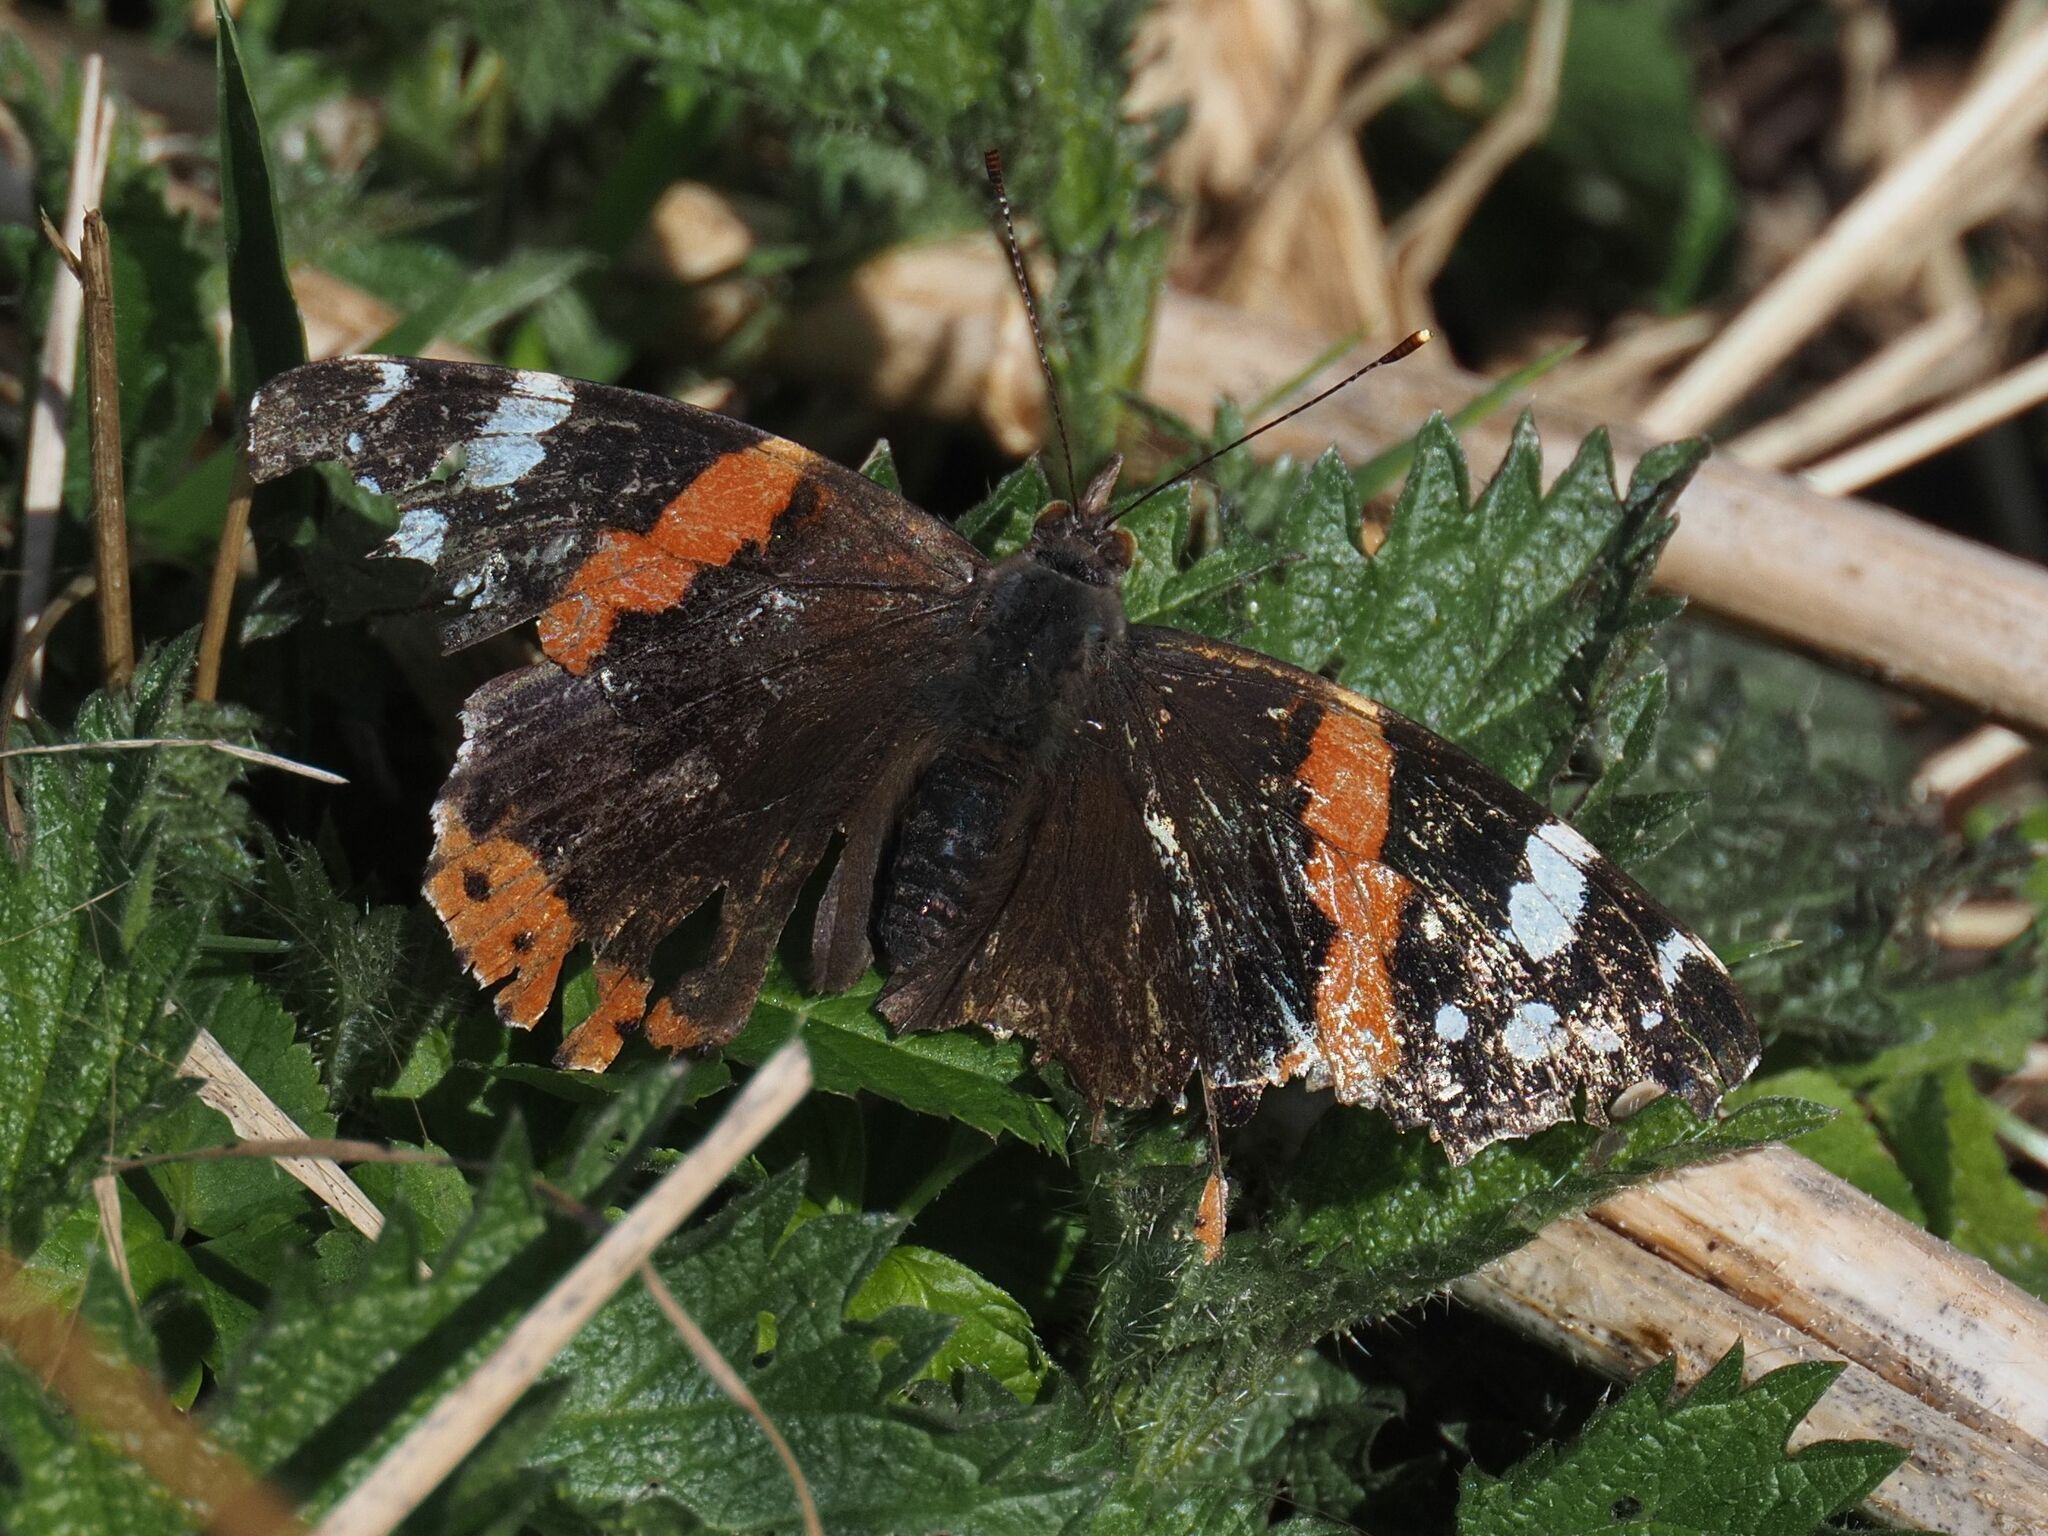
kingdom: Animalia
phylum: Arthropoda
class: Insecta
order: Lepidoptera
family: Nymphalidae
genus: Vanessa
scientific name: Vanessa atalanta
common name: Red admiral
